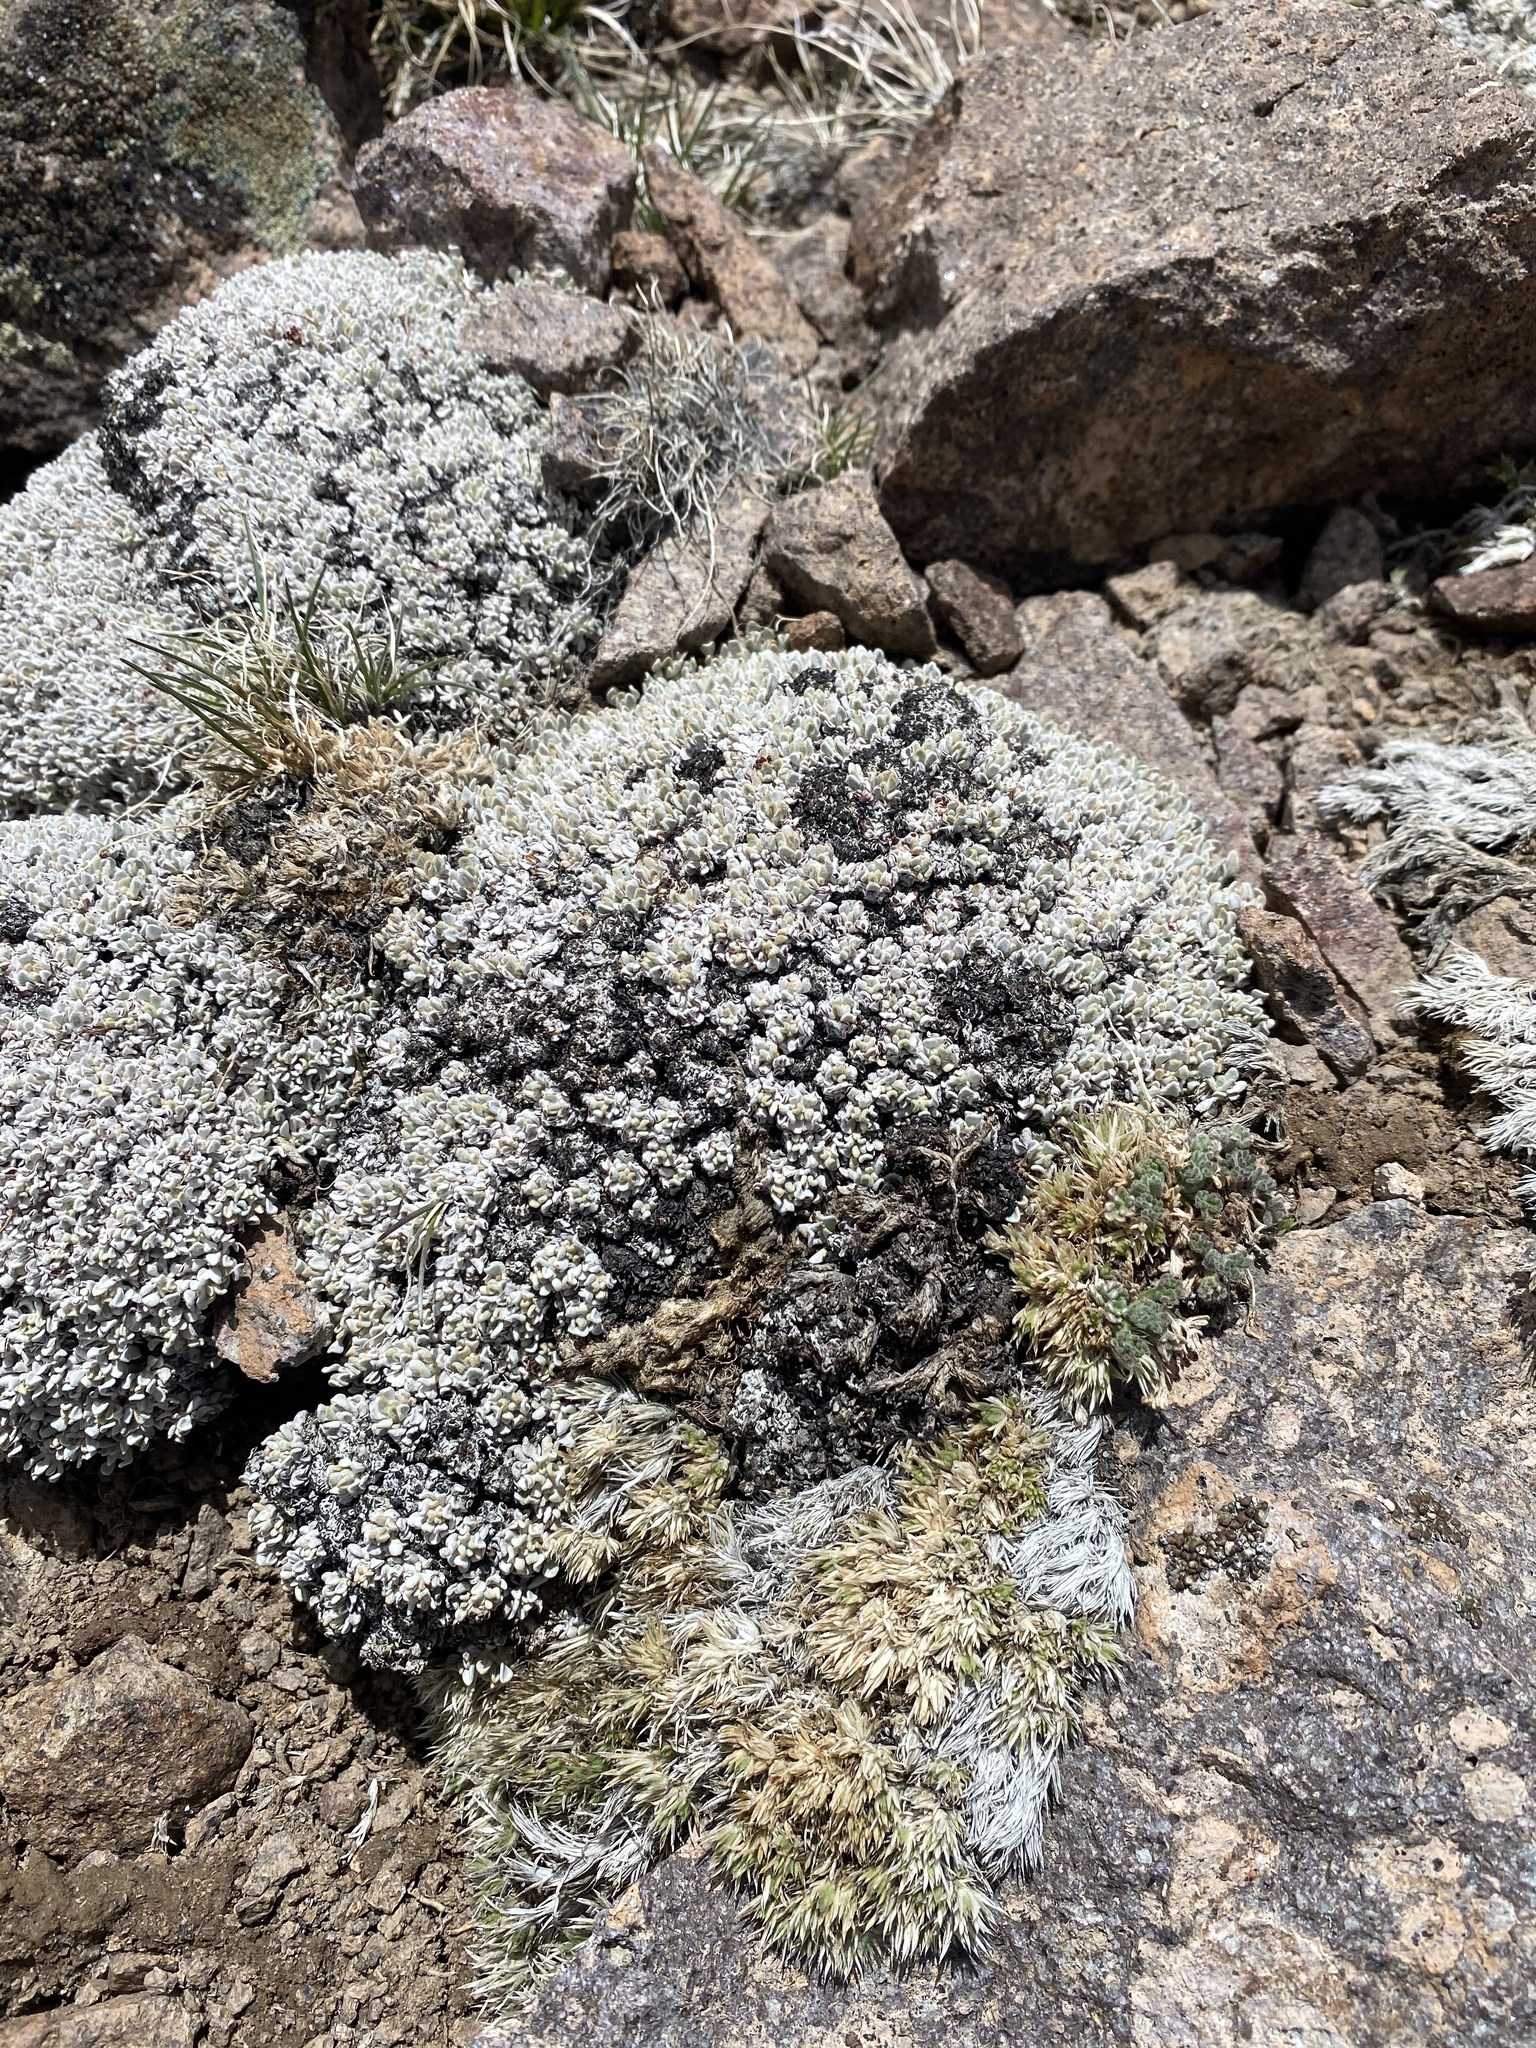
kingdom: Plantae
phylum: Tracheophyta
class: Magnoliopsida
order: Caryophyllales
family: Polygonaceae
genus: Eriogonum
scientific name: Eriogonum ovalifolium
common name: Cushion buckwheat
